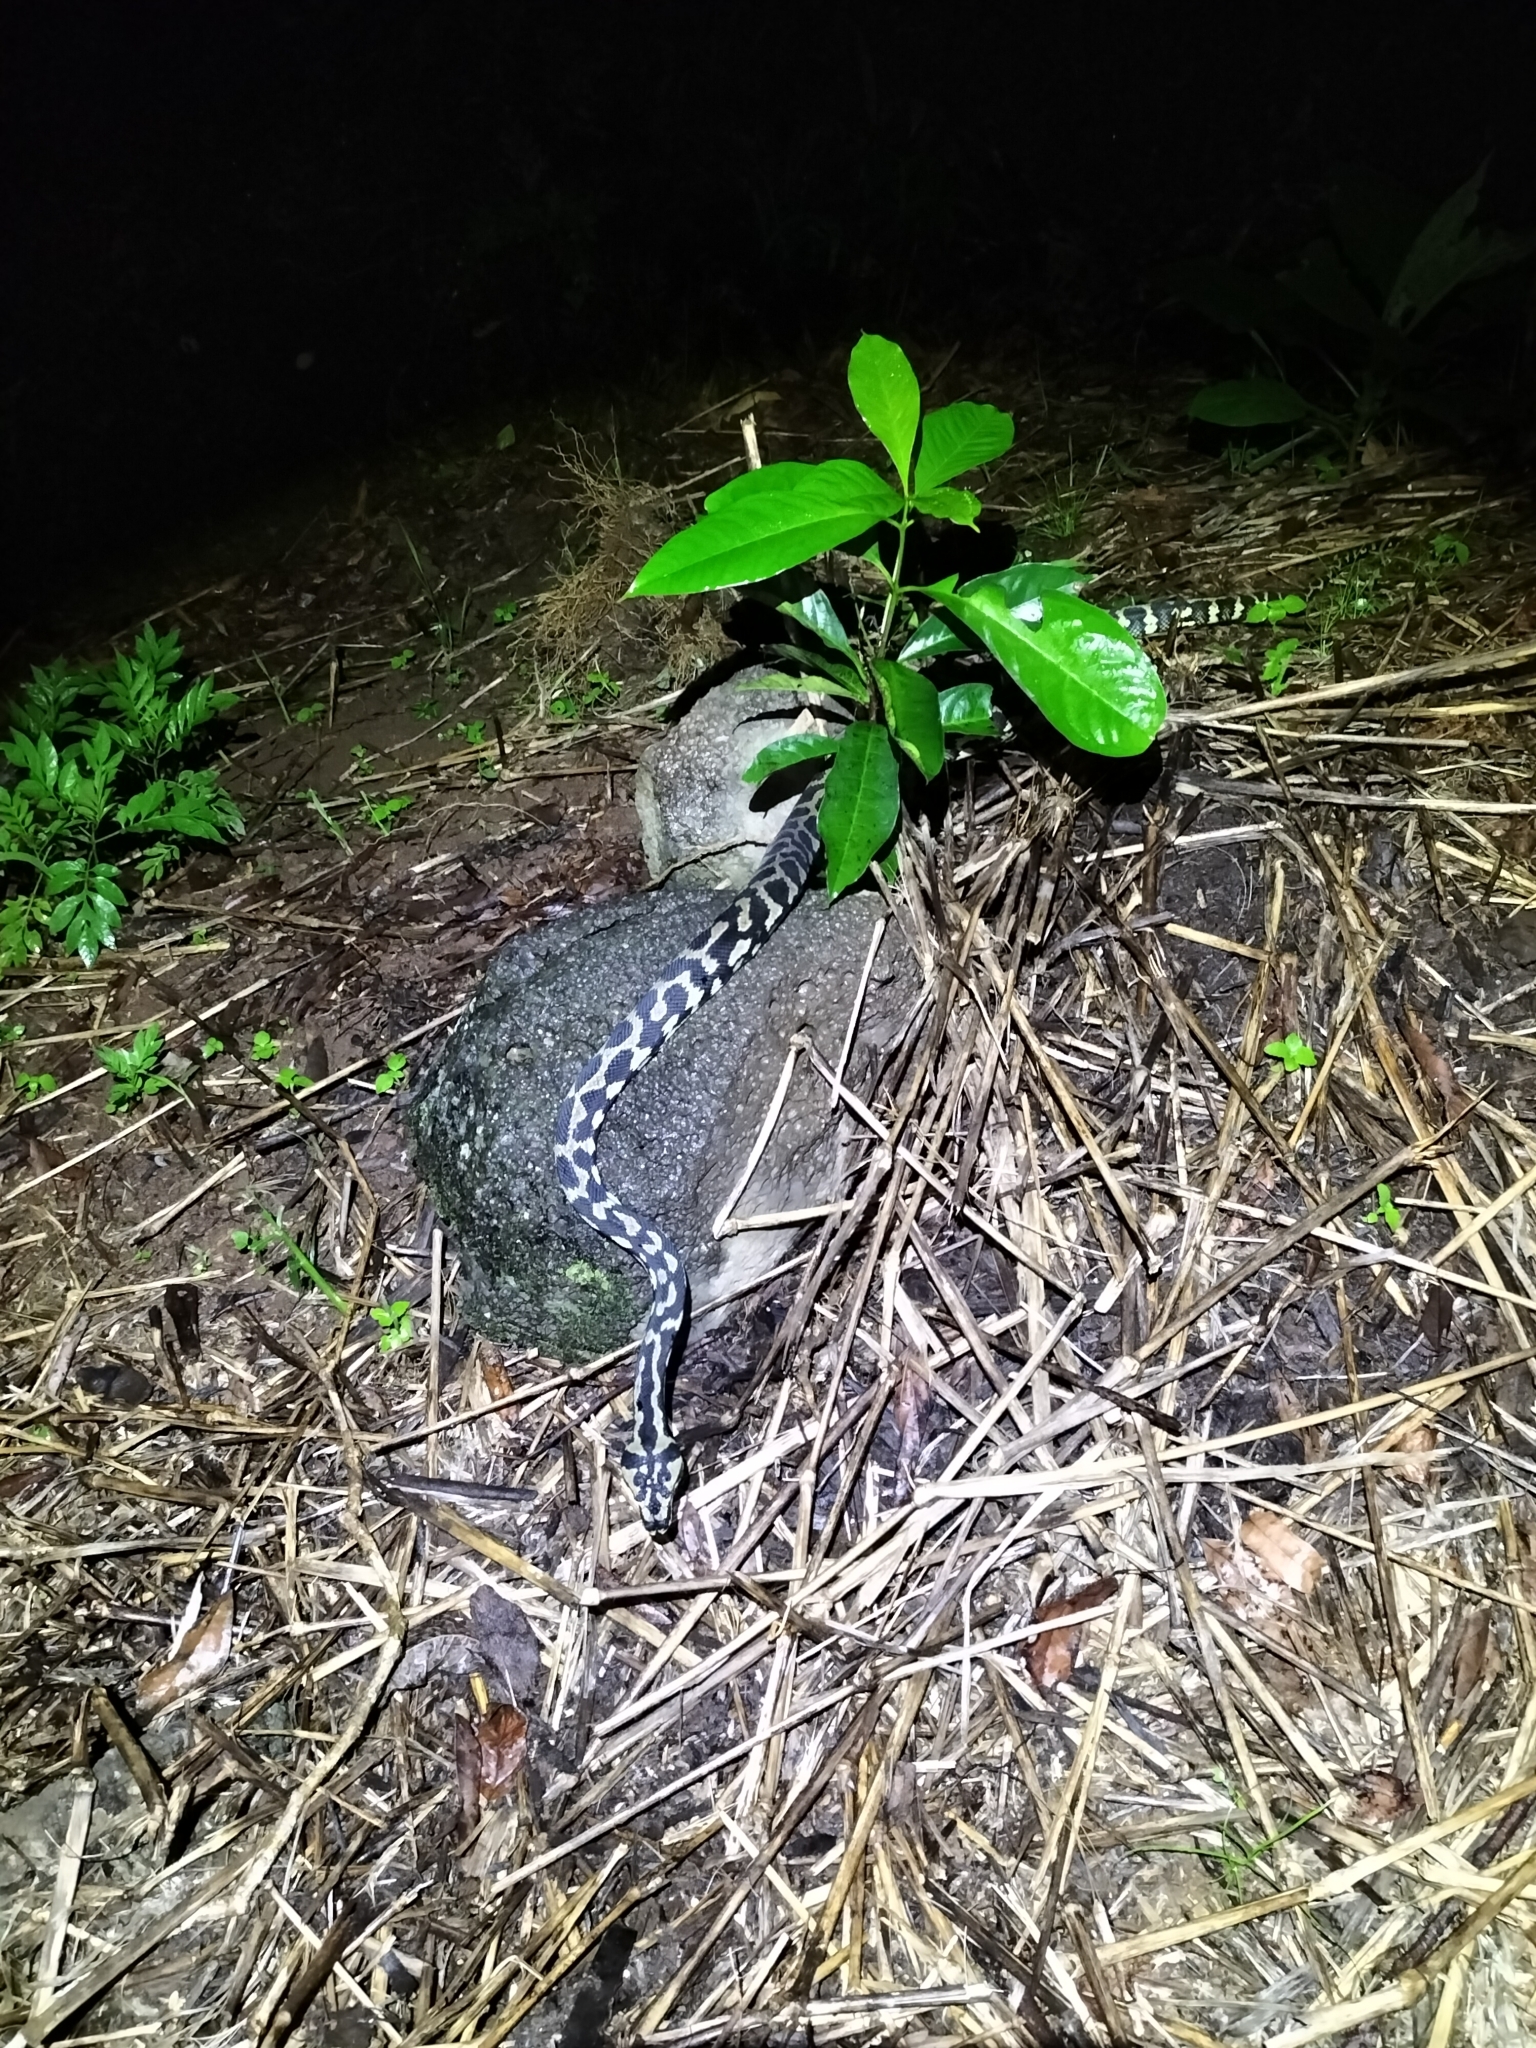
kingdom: Animalia
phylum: Chordata
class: Squamata
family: Pythonidae
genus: Morelia
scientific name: Morelia spilota
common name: Carpet python
